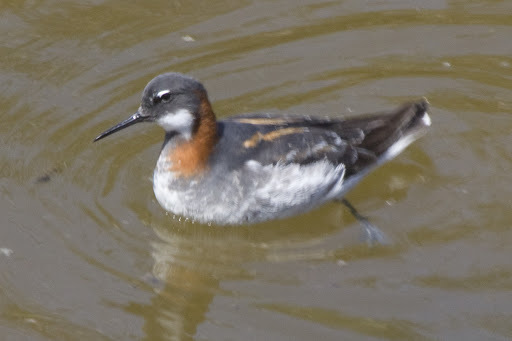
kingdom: Animalia
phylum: Chordata
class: Aves
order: Charadriiformes
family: Scolopacidae
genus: Phalaropus
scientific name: Phalaropus lobatus
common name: Red-necked phalarope
